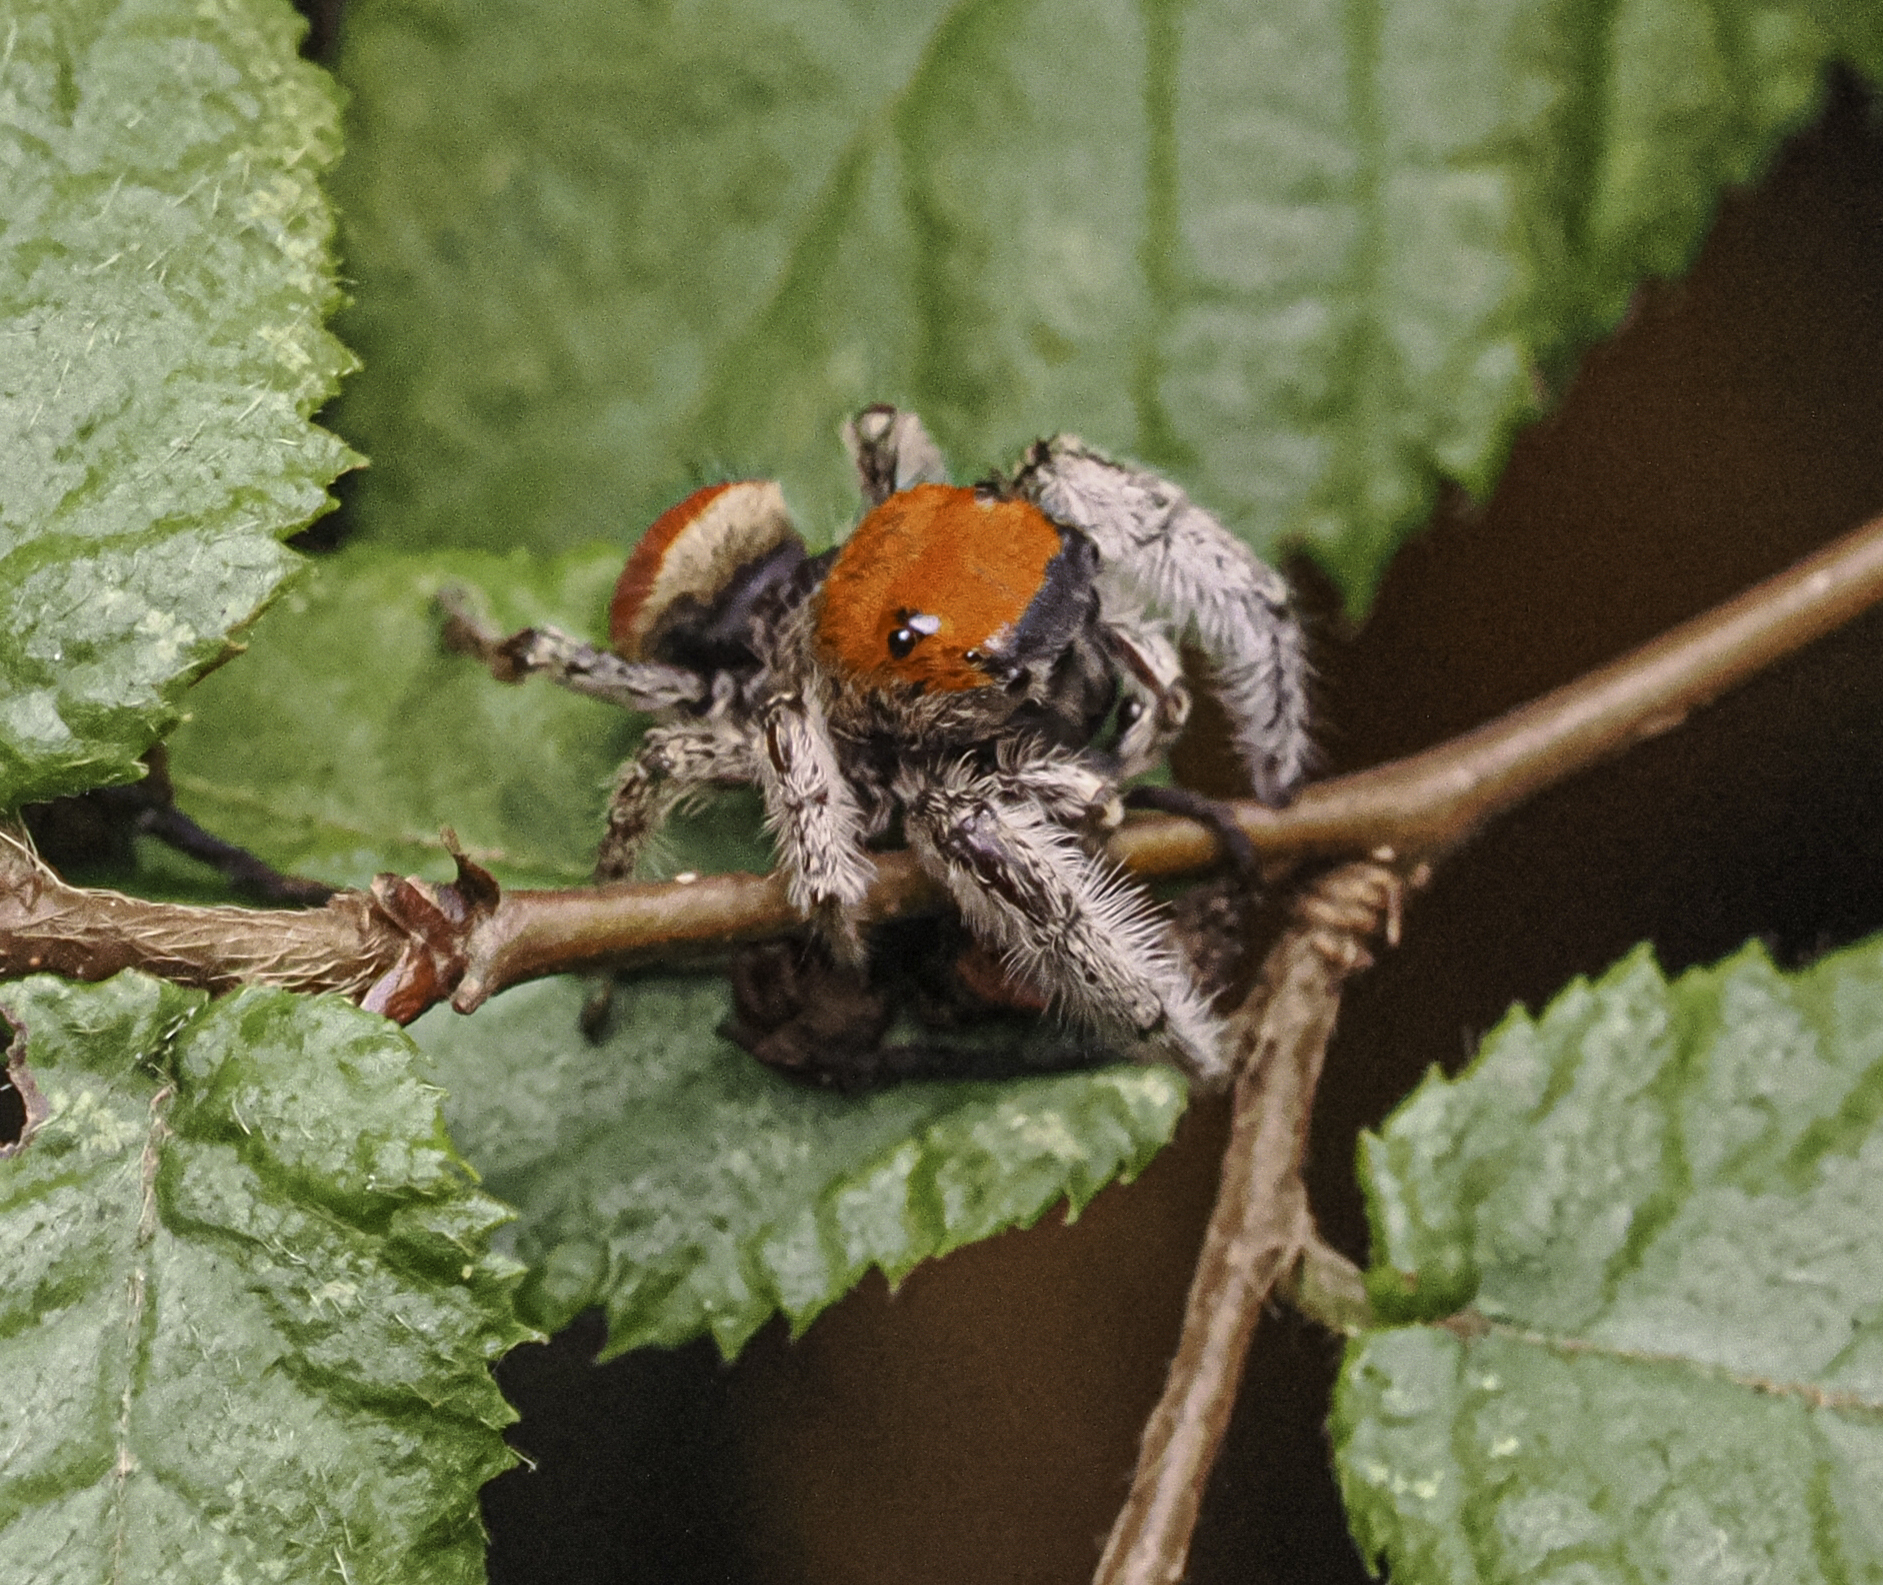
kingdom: Animalia
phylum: Arthropoda
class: Arachnida
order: Araneae
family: Salticidae
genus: Phidippus
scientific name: Phidippus whitmani
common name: Whitman's jumping spider
